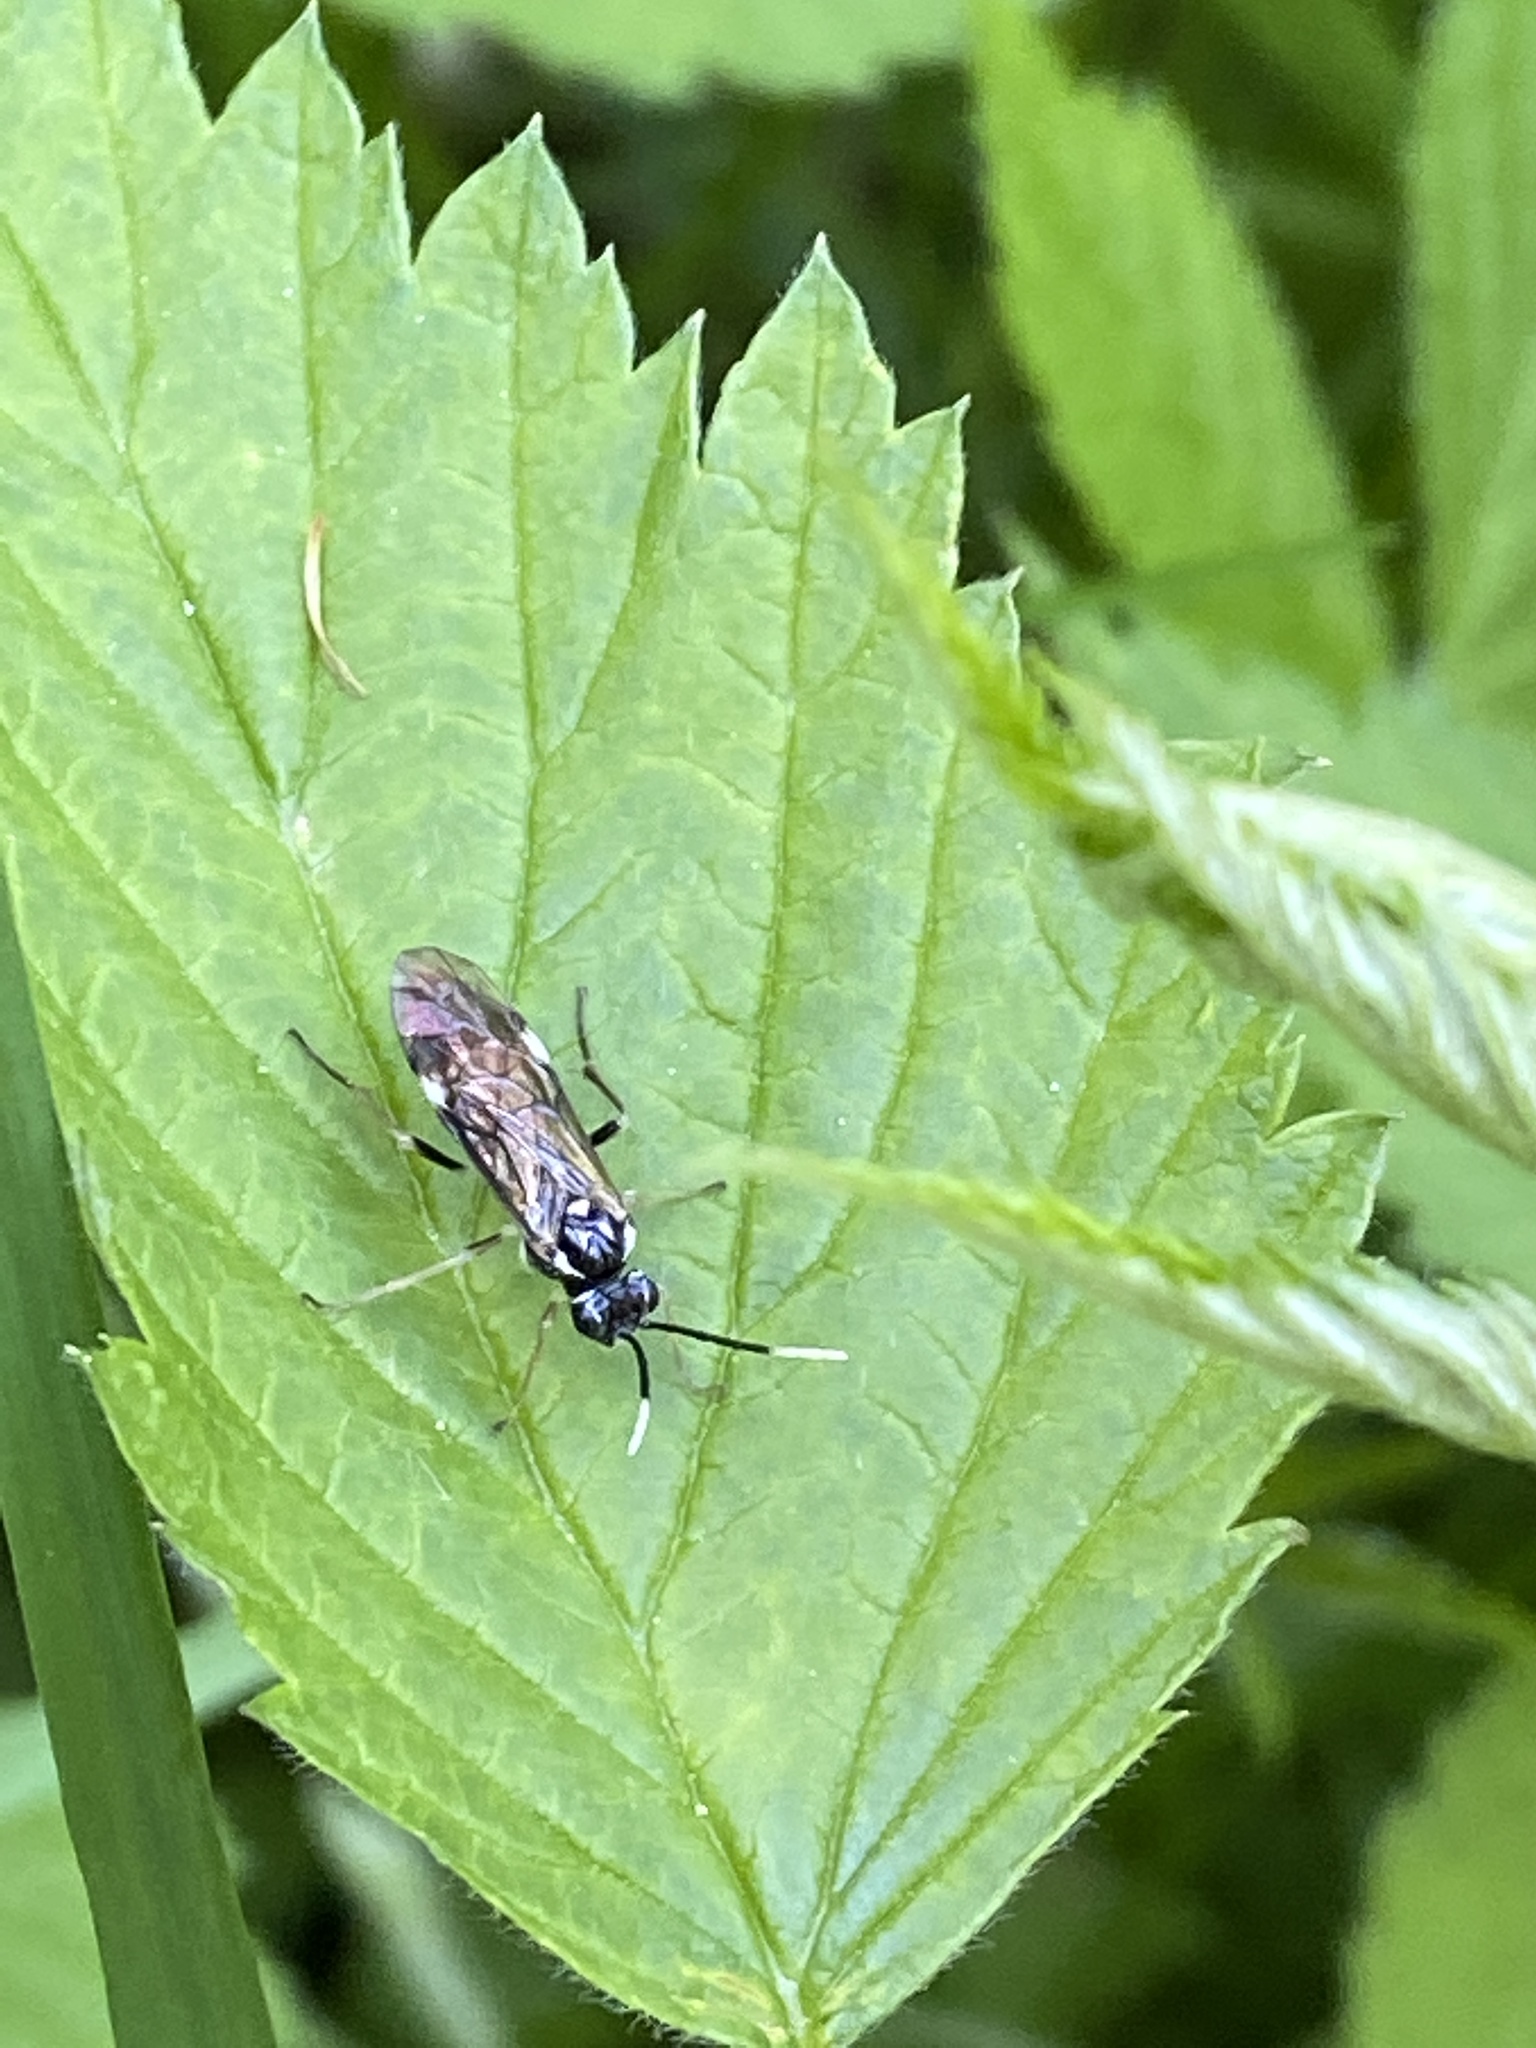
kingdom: Animalia
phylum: Arthropoda
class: Insecta
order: Hymenoptera
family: Tenthredinidae
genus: Perineura
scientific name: Perineura rubi
